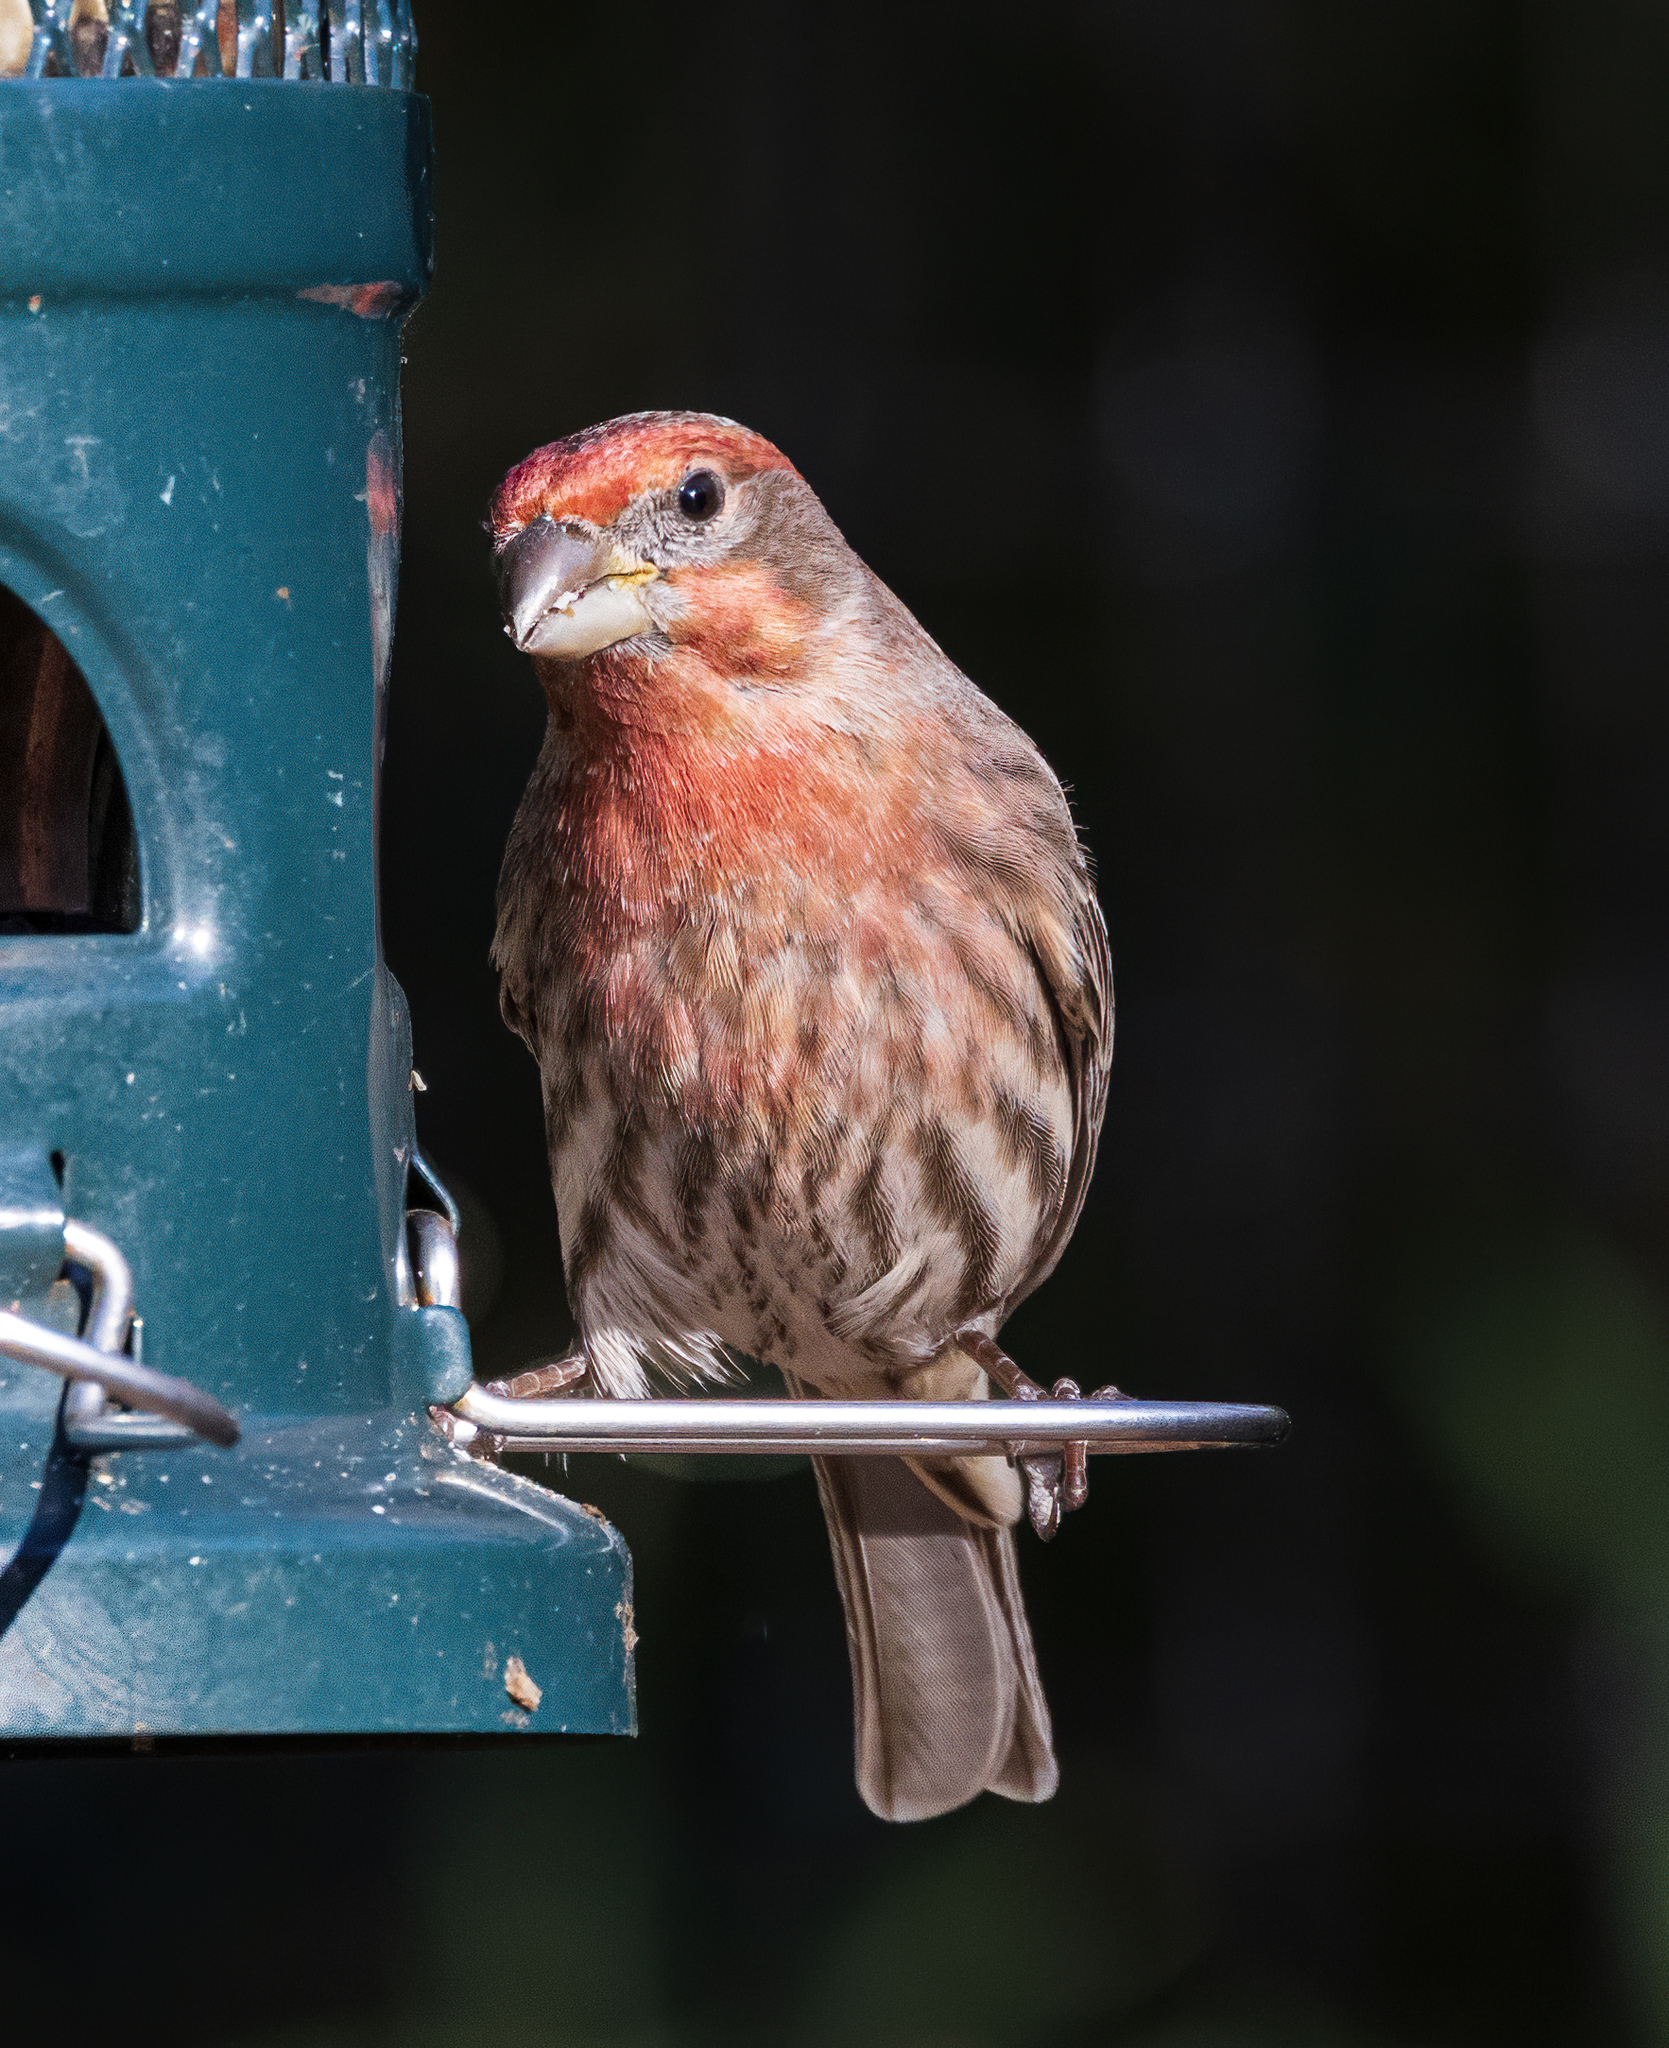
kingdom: Animalia
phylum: Chordata
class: Aves
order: Passeriformes
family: Fringillidae
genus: Haemorhous
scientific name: Haemorhous mexicanus
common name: House finch
